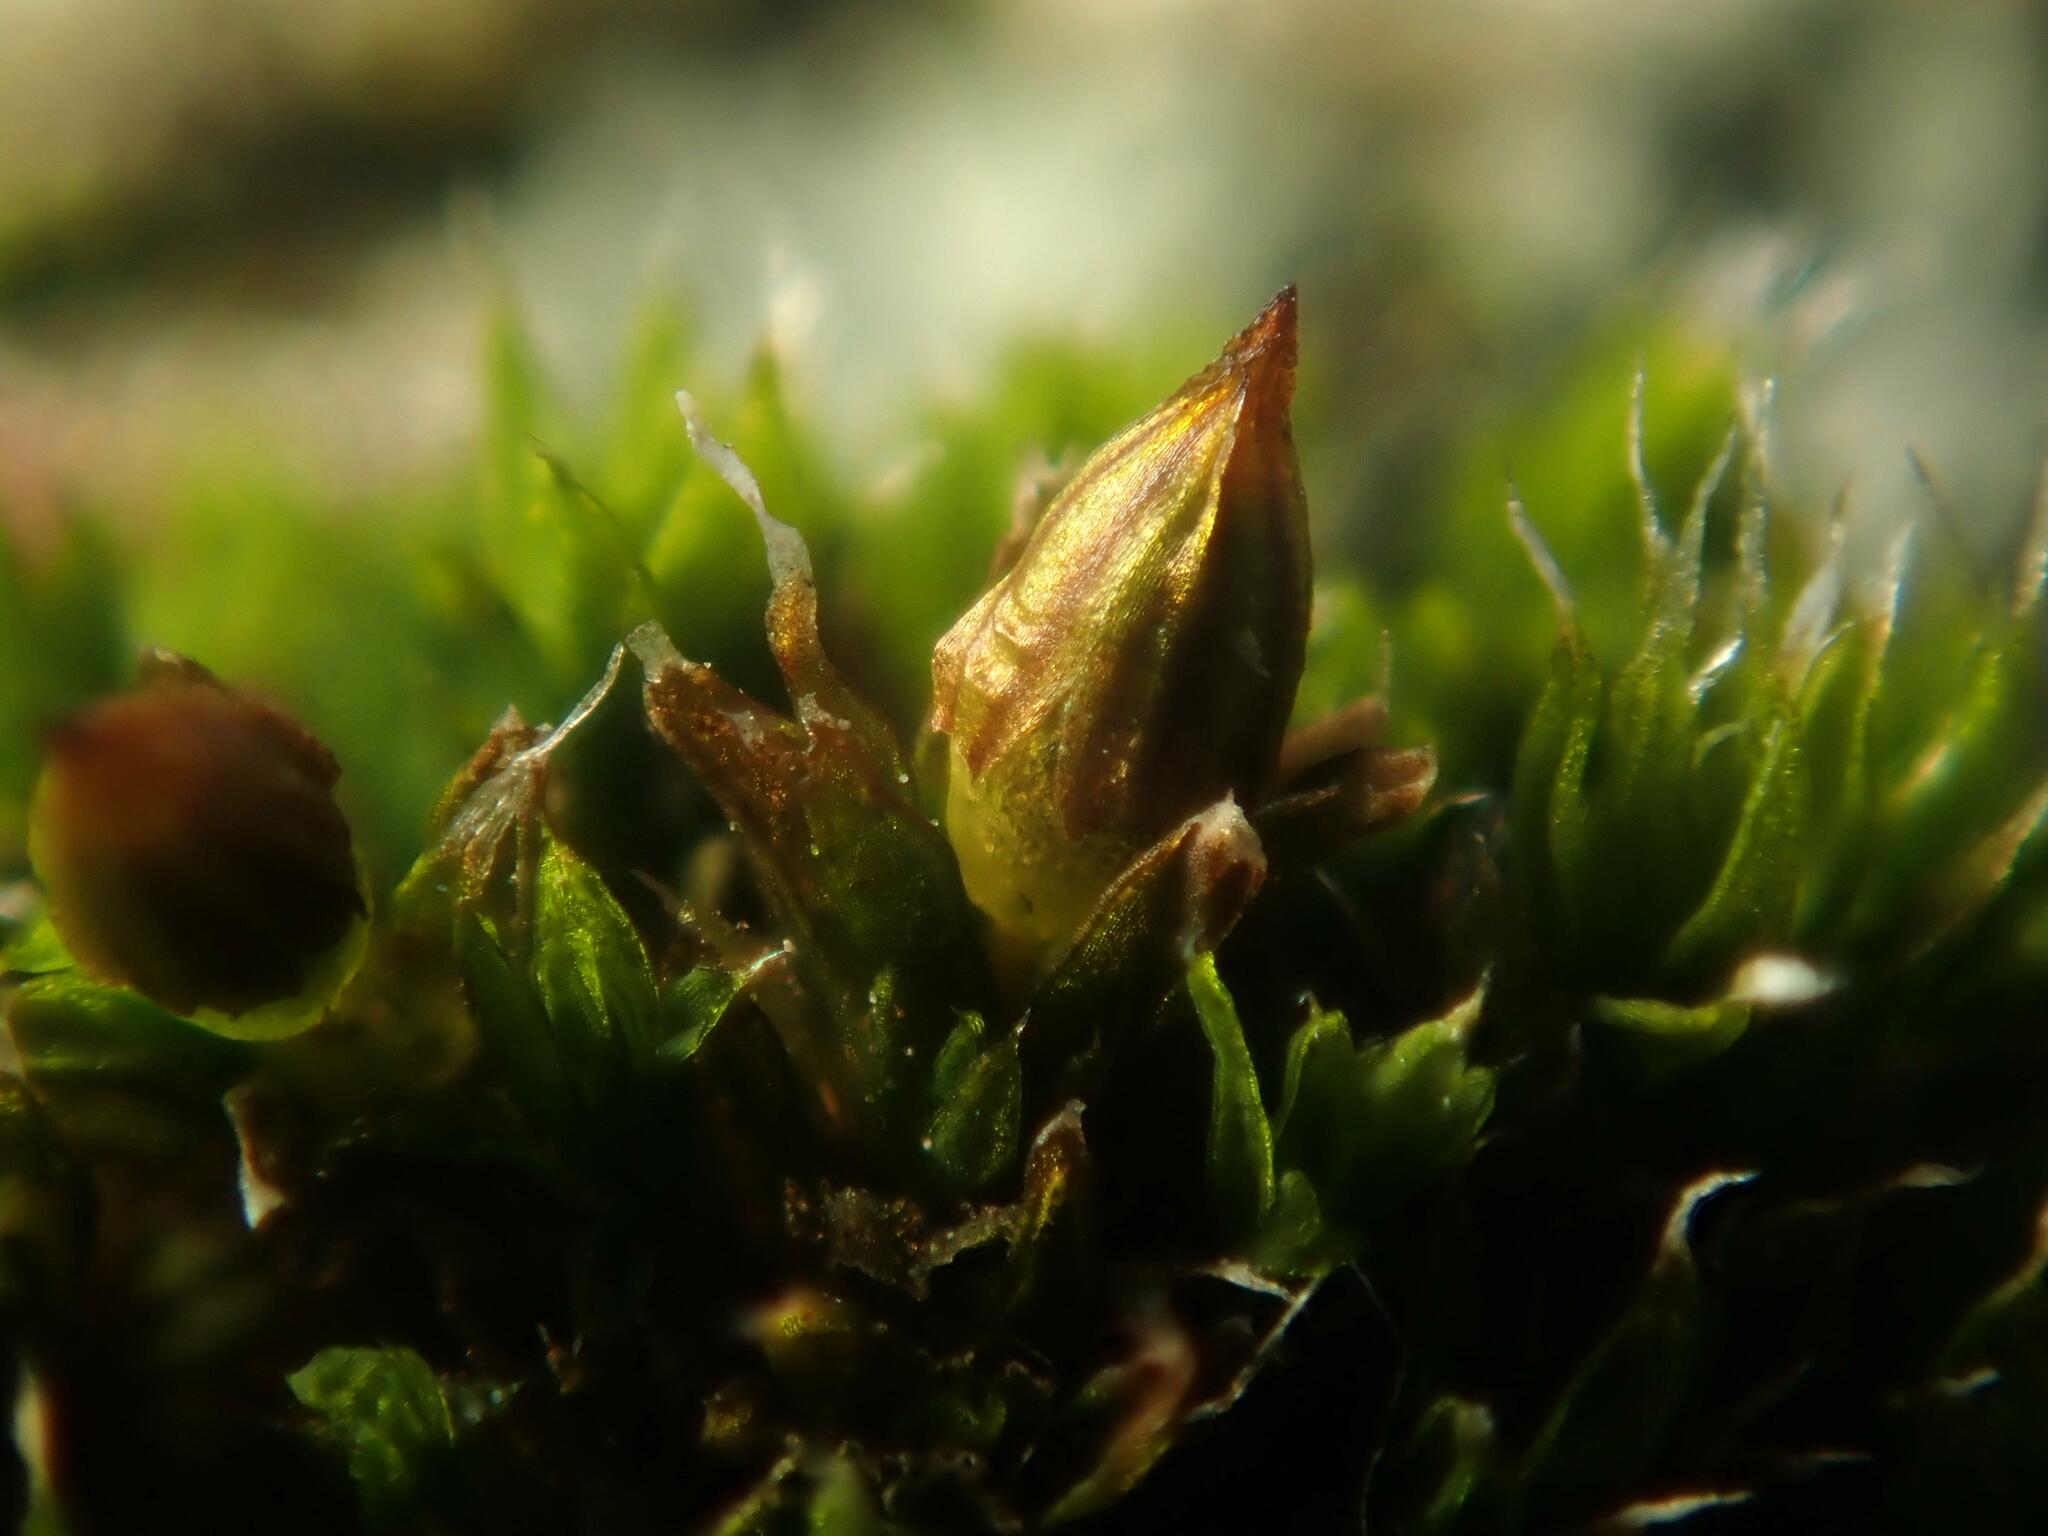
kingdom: Plantae
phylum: Bryophyta
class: Bryopsida
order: Orthotrichales
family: Orthotrichaceae
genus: Orthotrichum
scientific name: Orthotrichum diaphanum
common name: White-tipped bristle-moss
